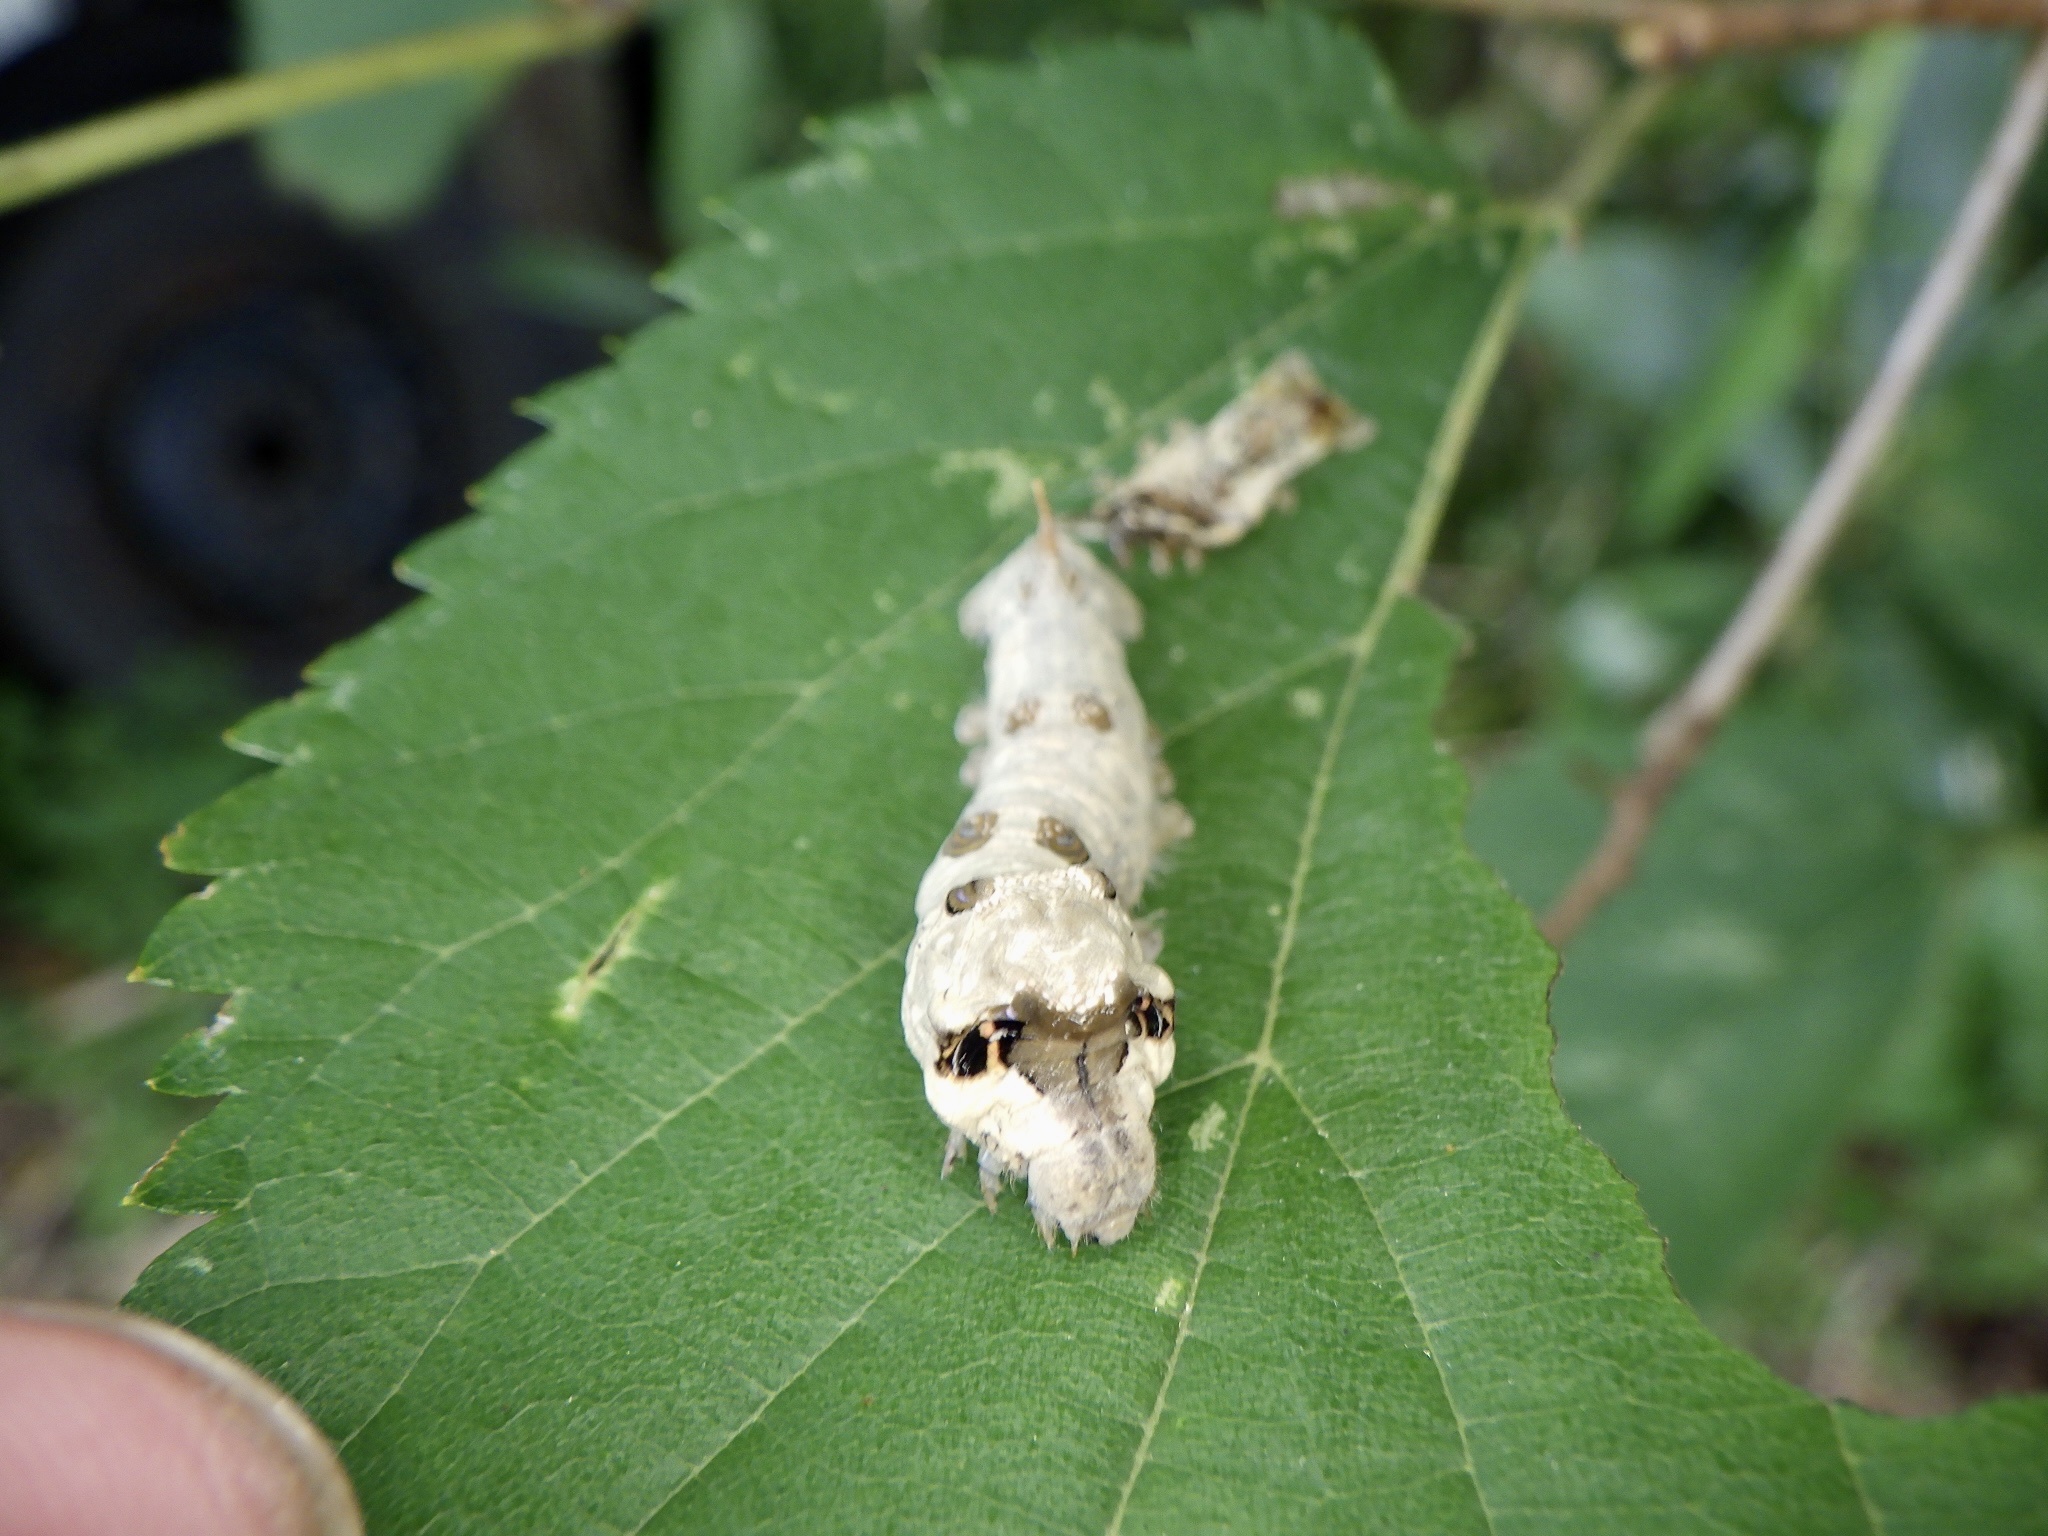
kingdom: Animalia
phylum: Arthropoda
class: Insecta
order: Lepidoptera
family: Bombycidae
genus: Bombyx
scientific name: Bombyx mandarina
